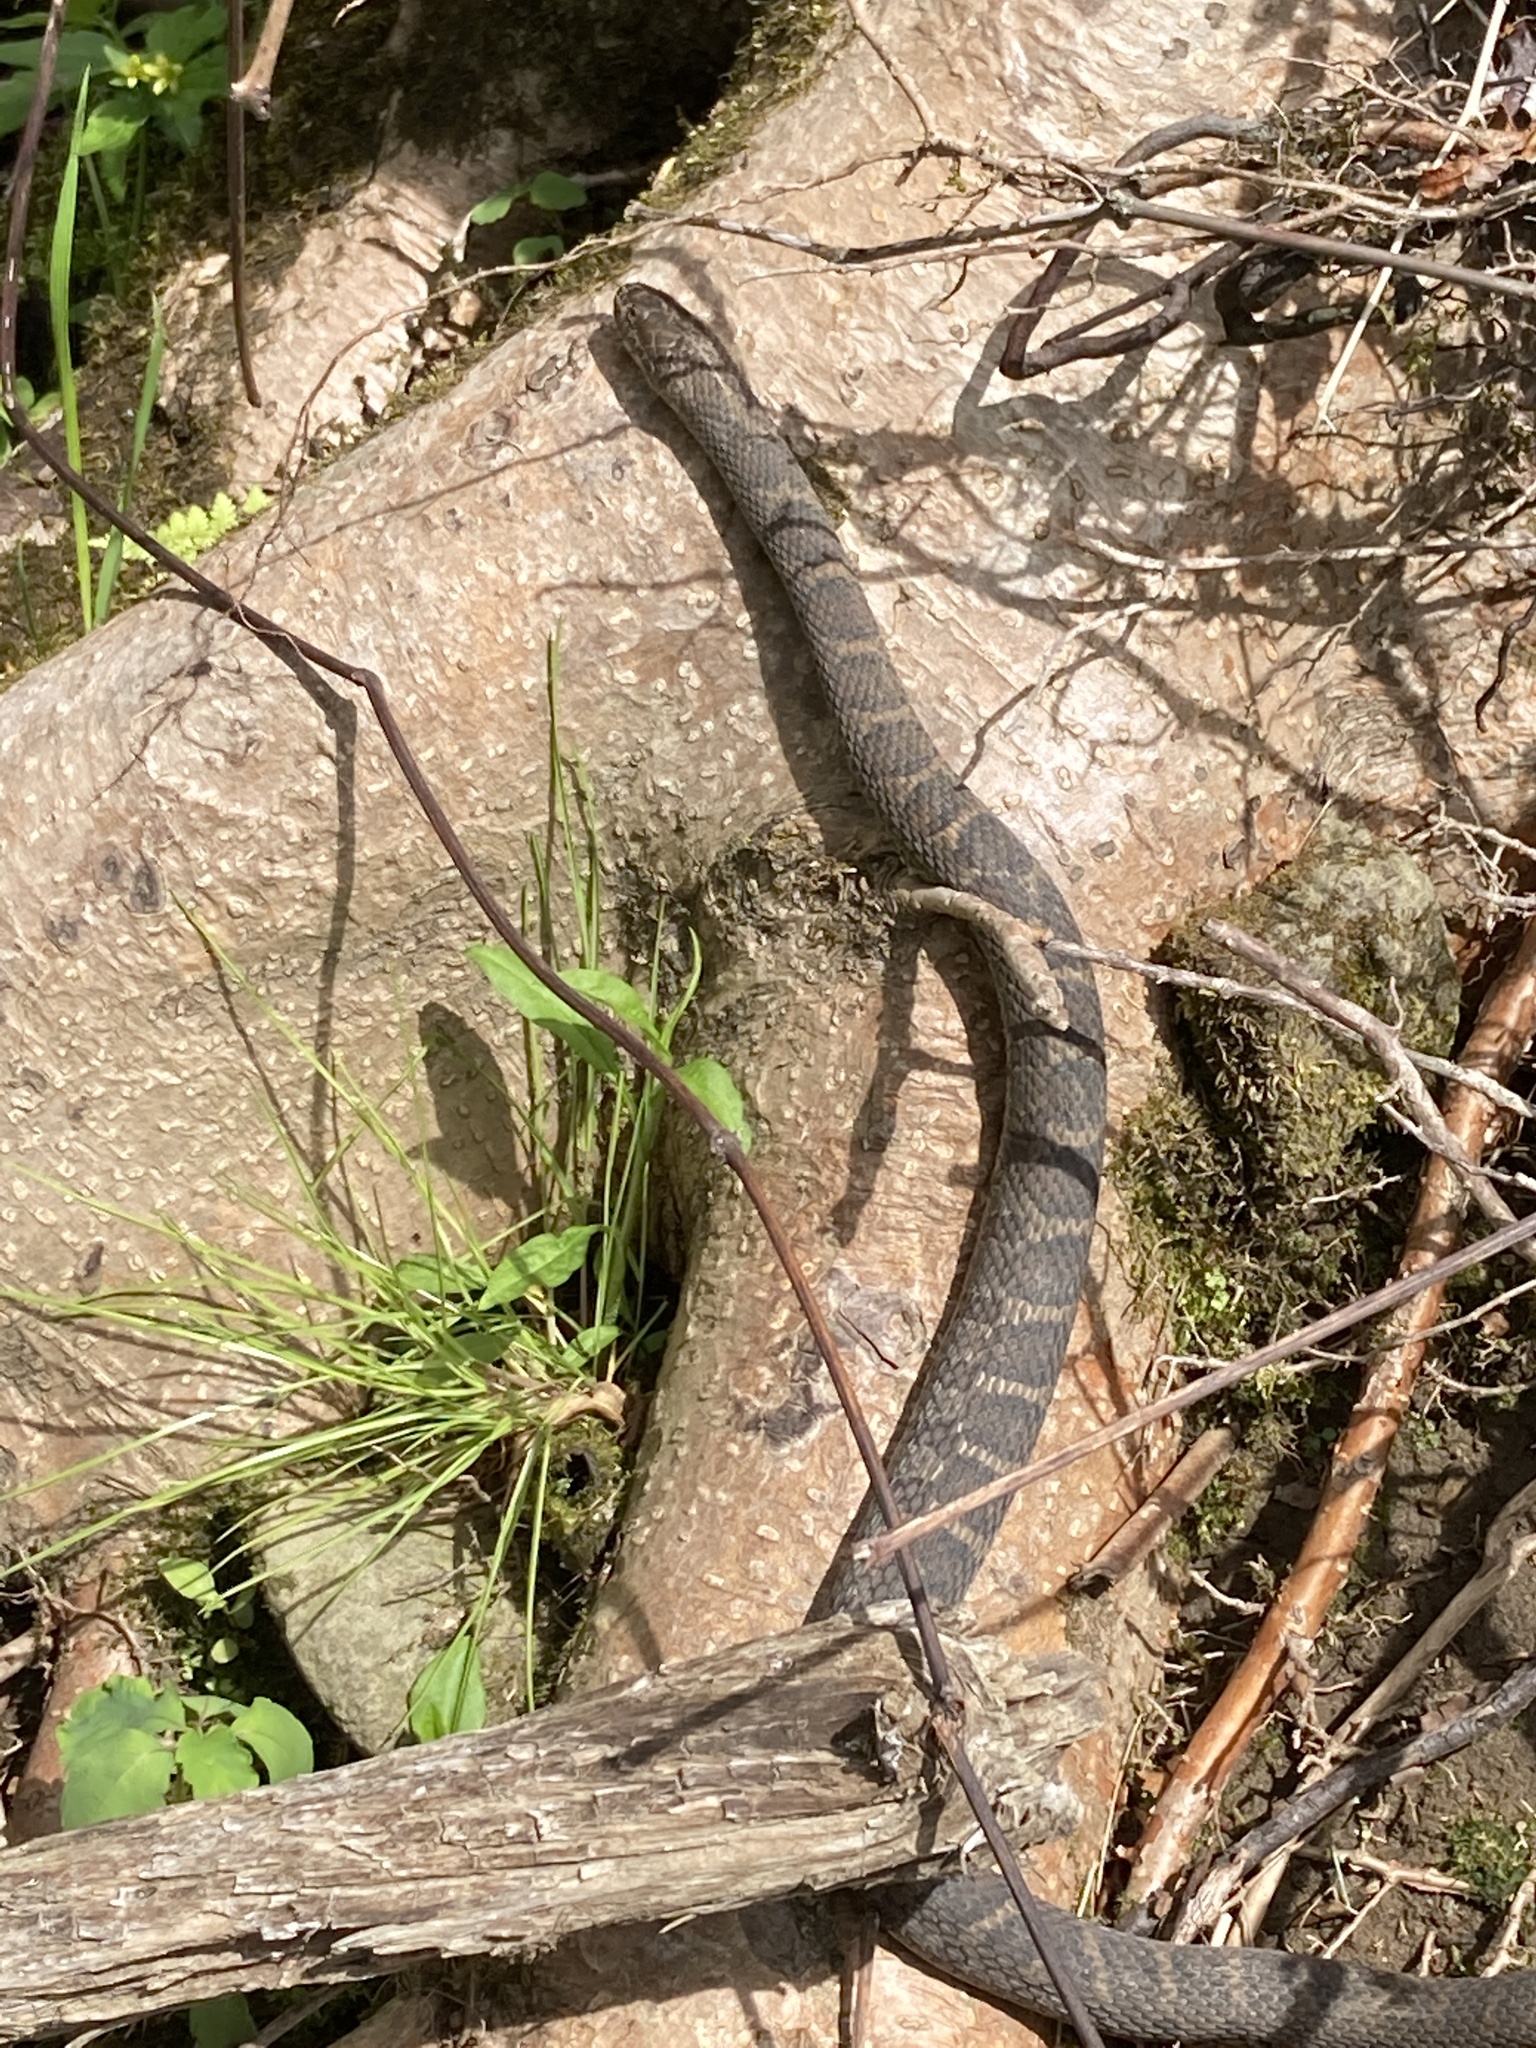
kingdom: Animalia
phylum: Chordata
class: Squamata
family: Colubridae
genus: Nerodia
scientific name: Nerodia sipedon
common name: Northern water snake
